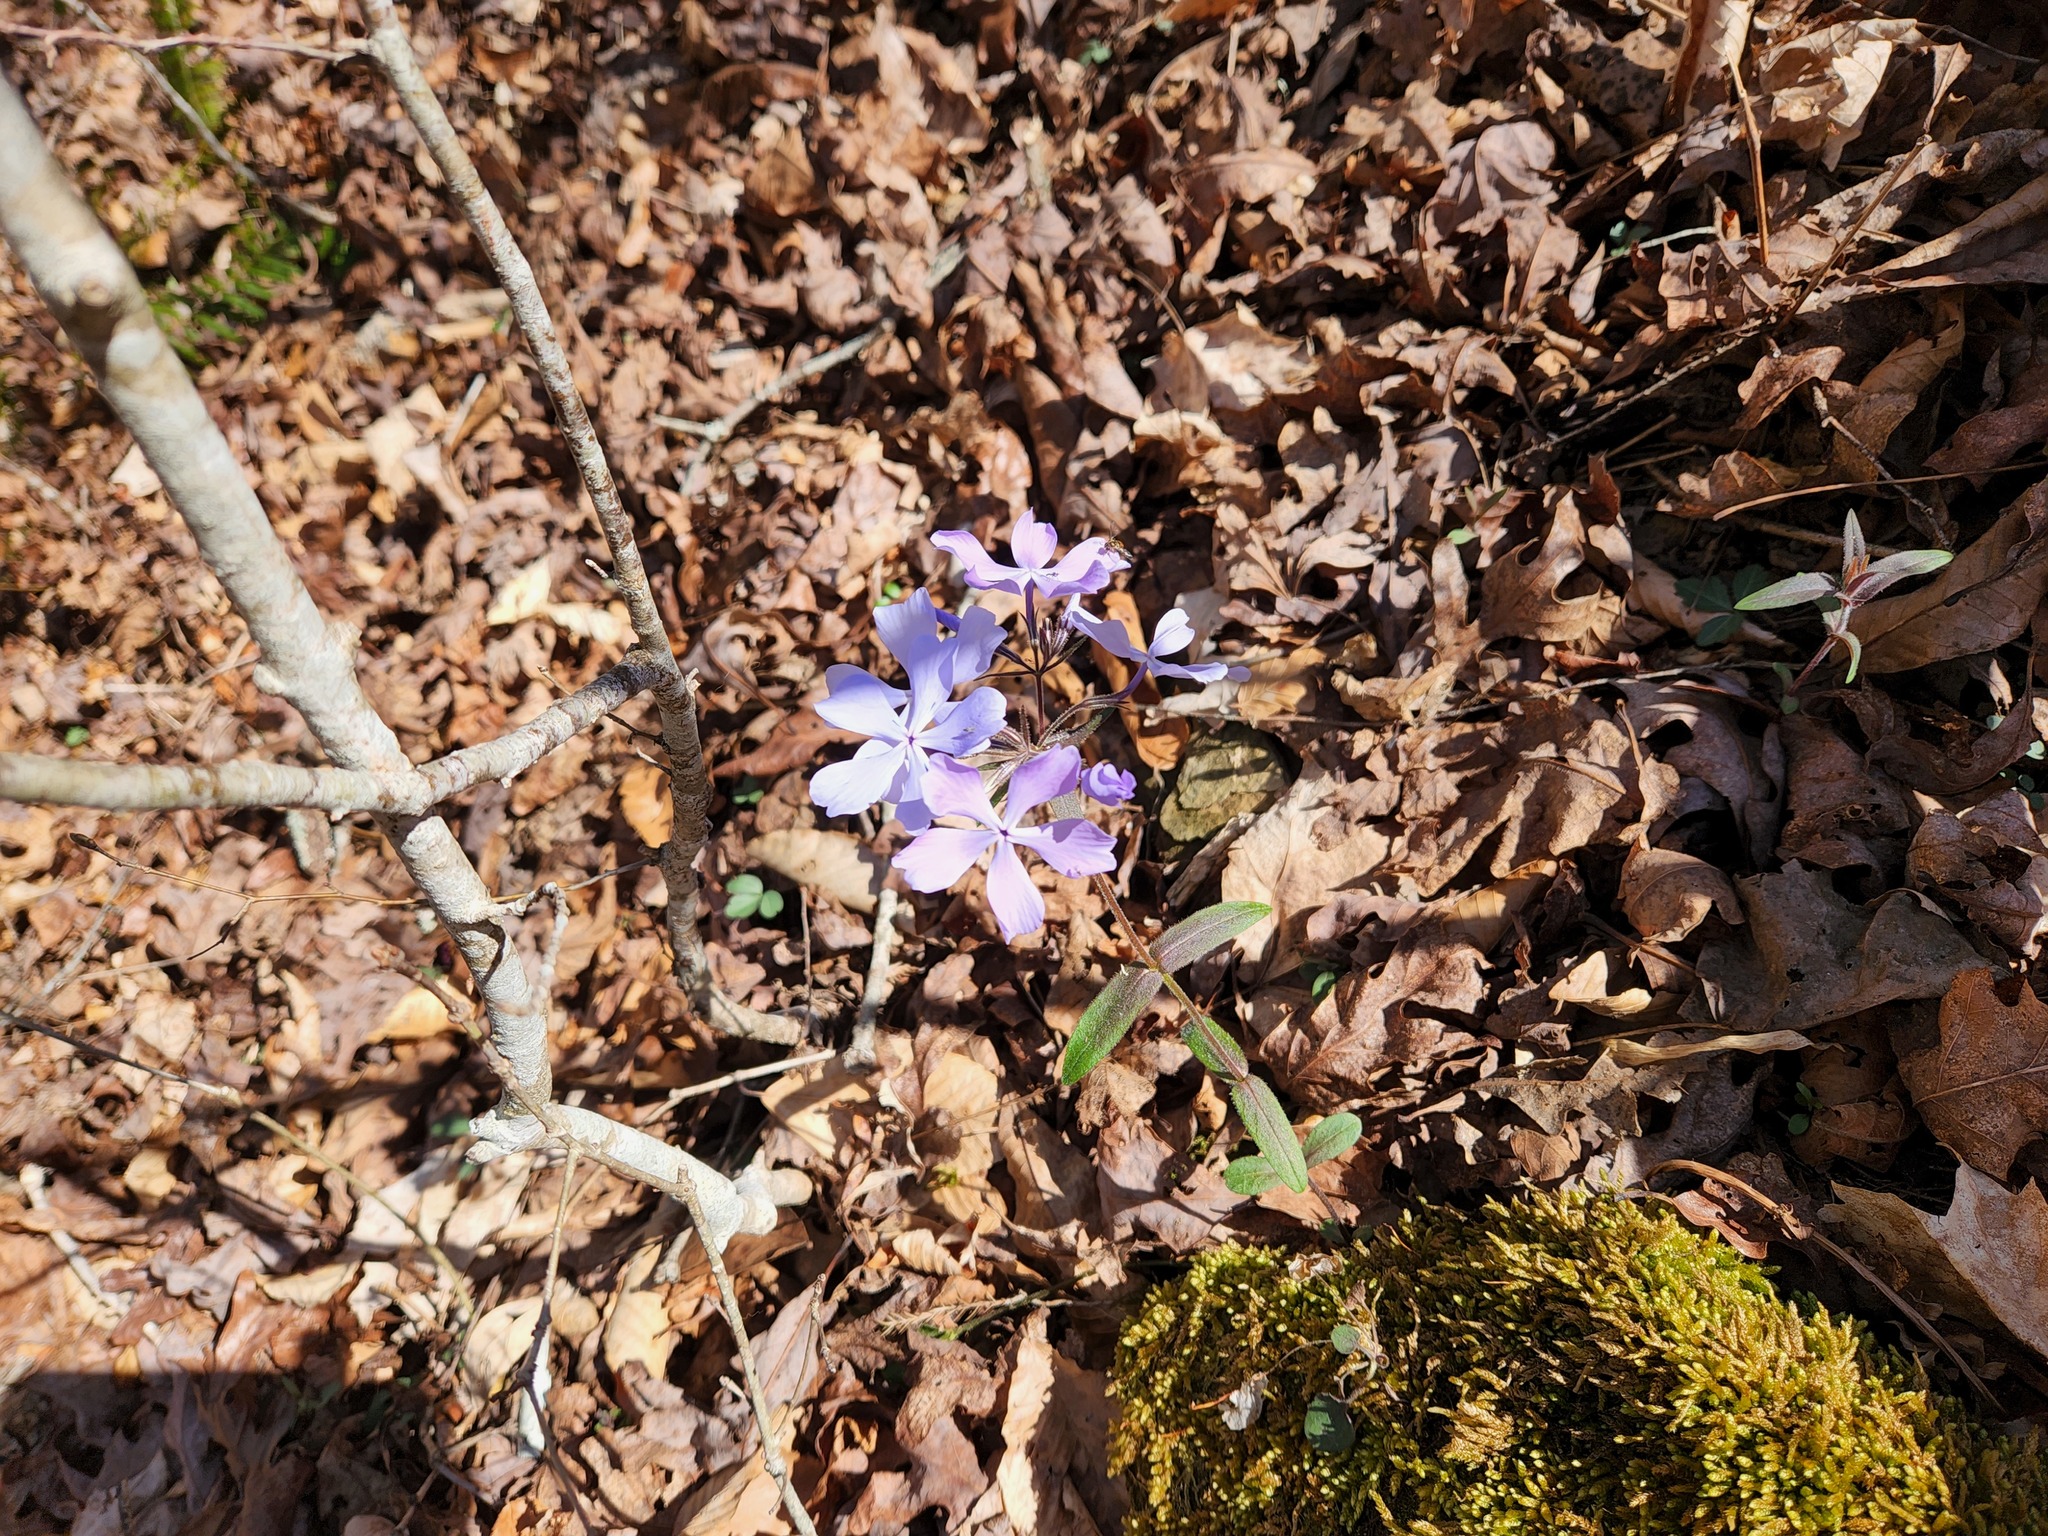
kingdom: Plantae
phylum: Tracheophyta
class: Magnoliopsida
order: Ericales
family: Polemoniaceae
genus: Phlox
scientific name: Phlox divaricata
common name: Blue phlox
